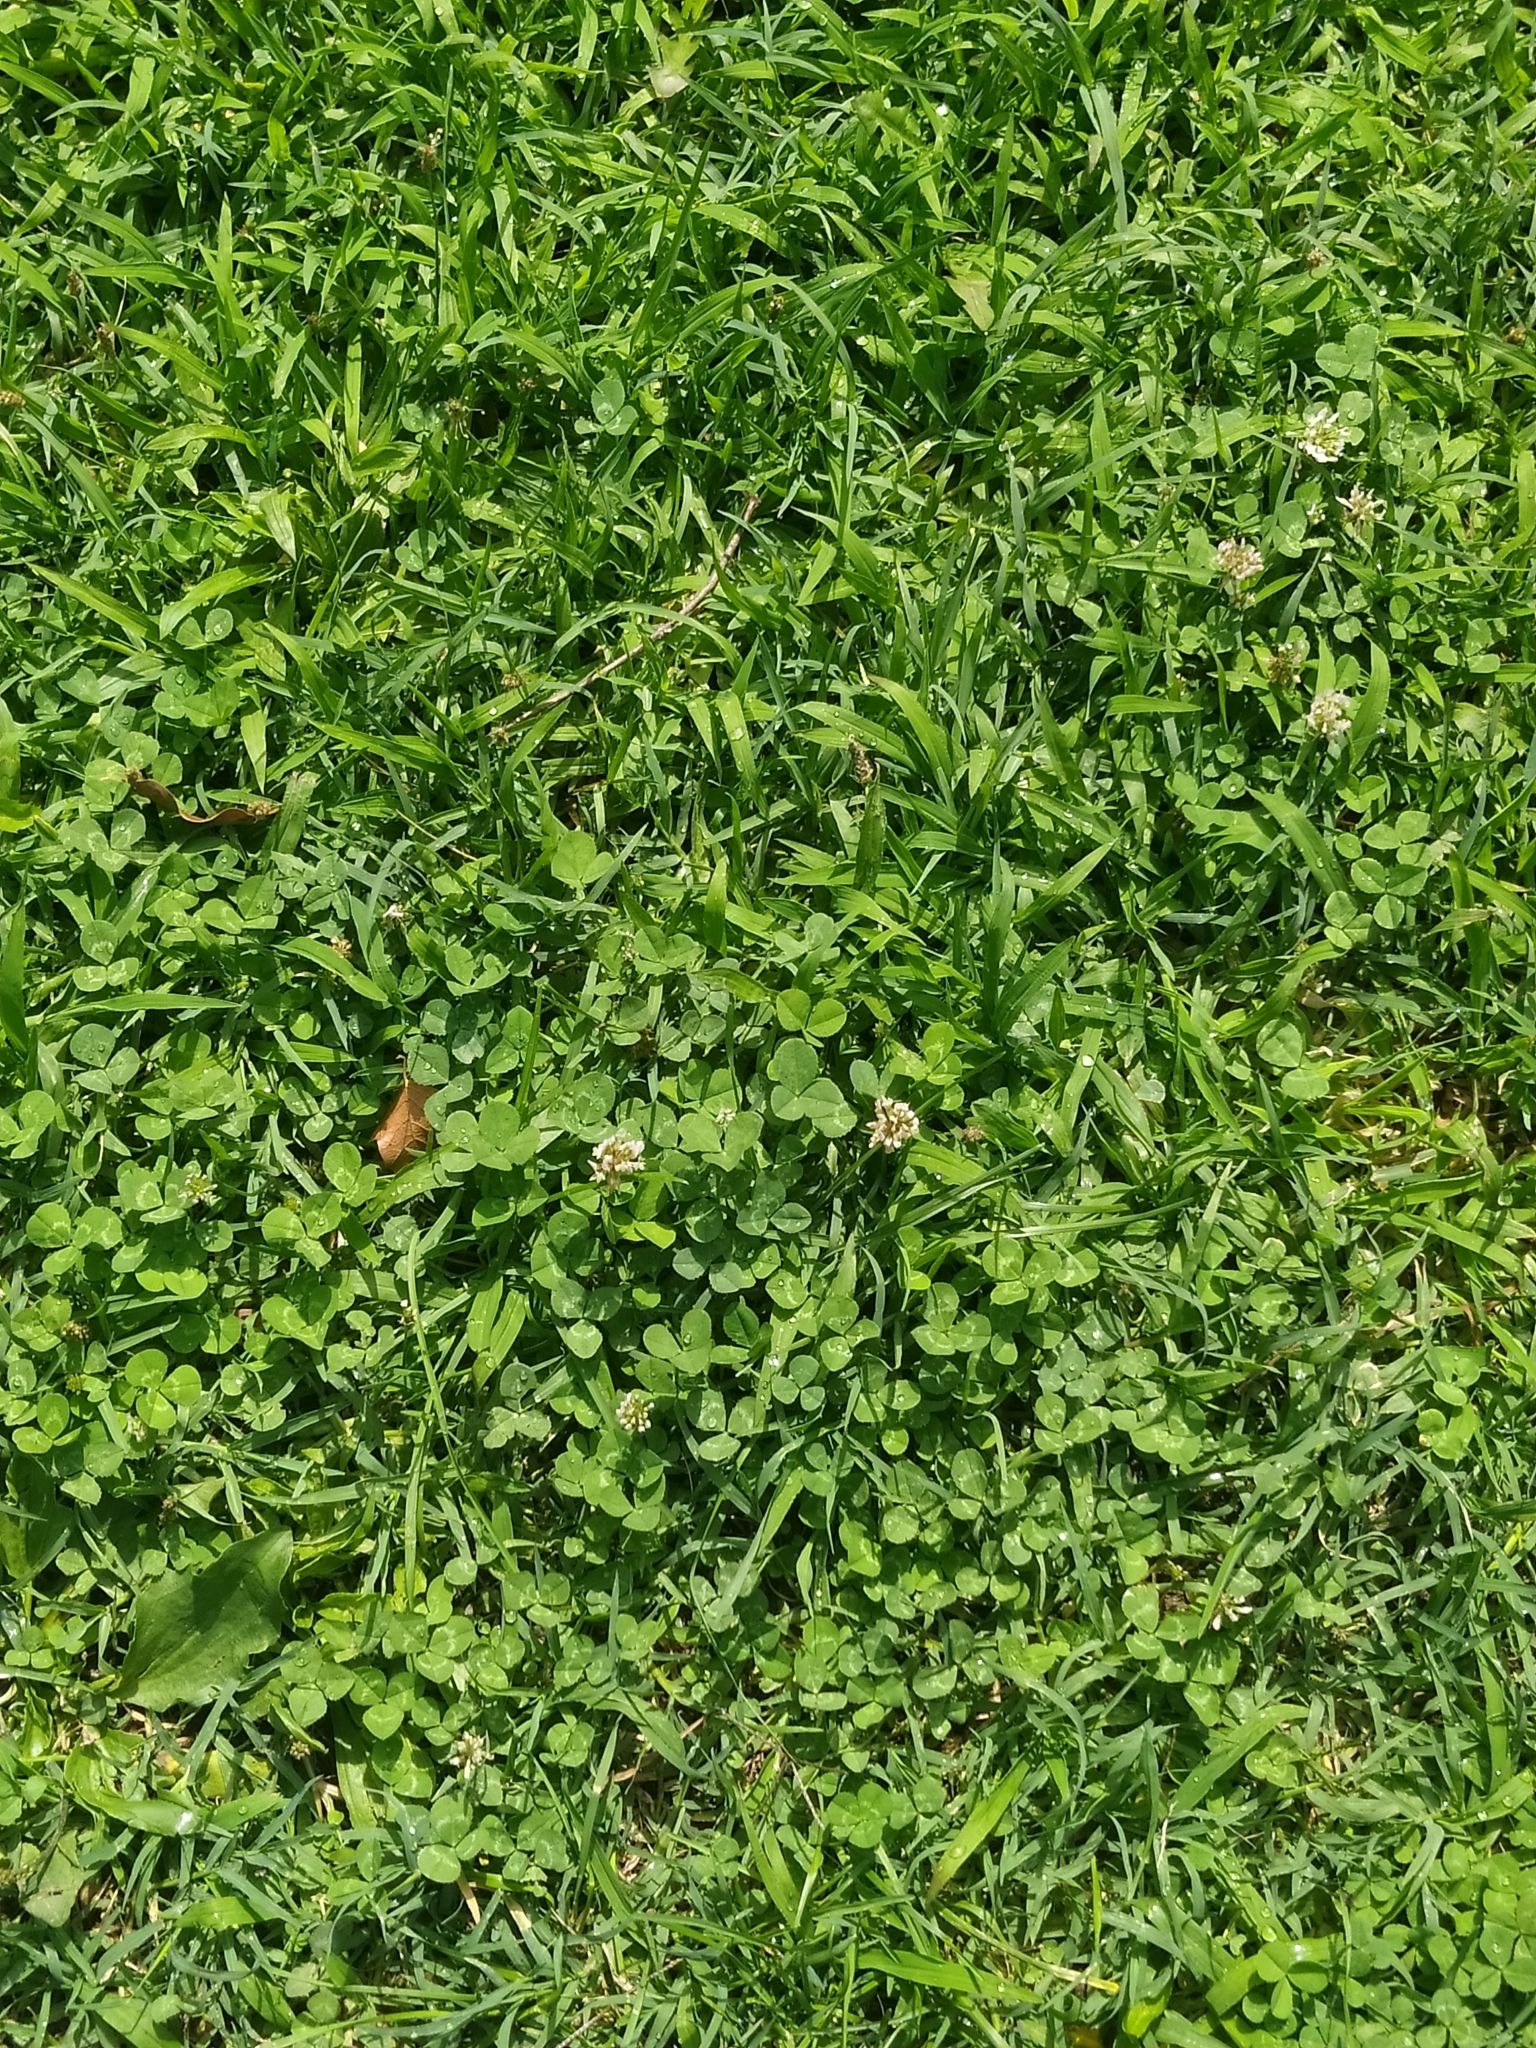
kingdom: Plantae
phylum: Tracheophyta
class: Magnoliopsida
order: Fabales
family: Fabaceae
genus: Trifolium
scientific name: Trifolium repens
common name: White clover
